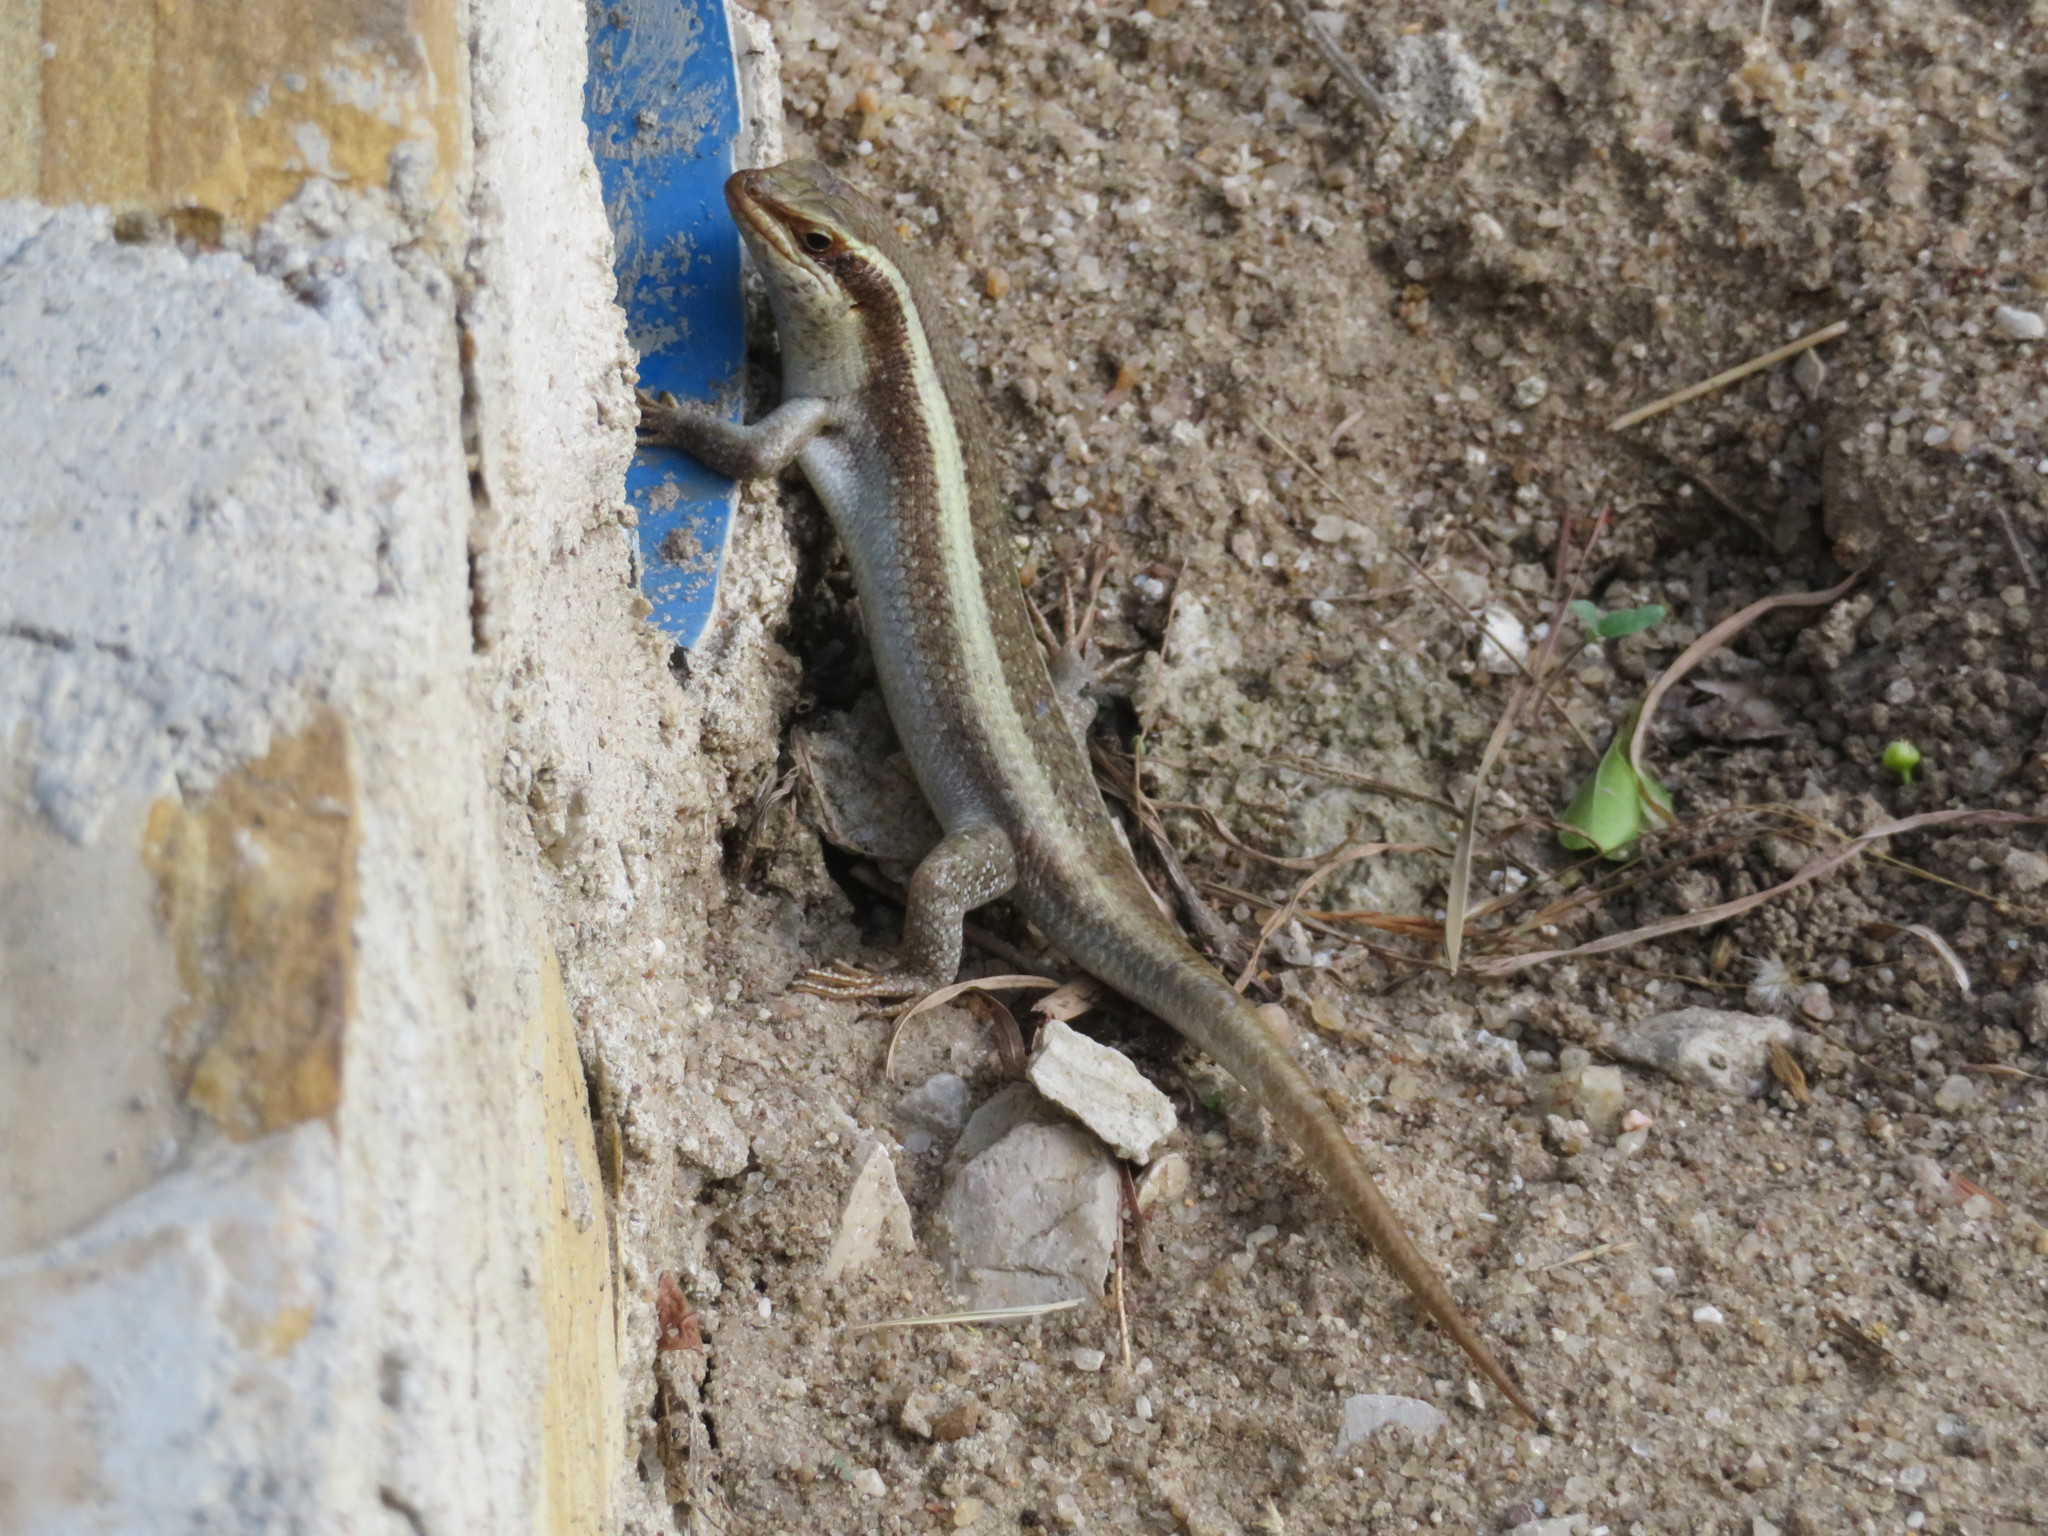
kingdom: Animalia
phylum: Chordata
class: Squamata
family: Scincidae
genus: Trachylepis
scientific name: Trachylepis striata
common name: African striped mabuya
